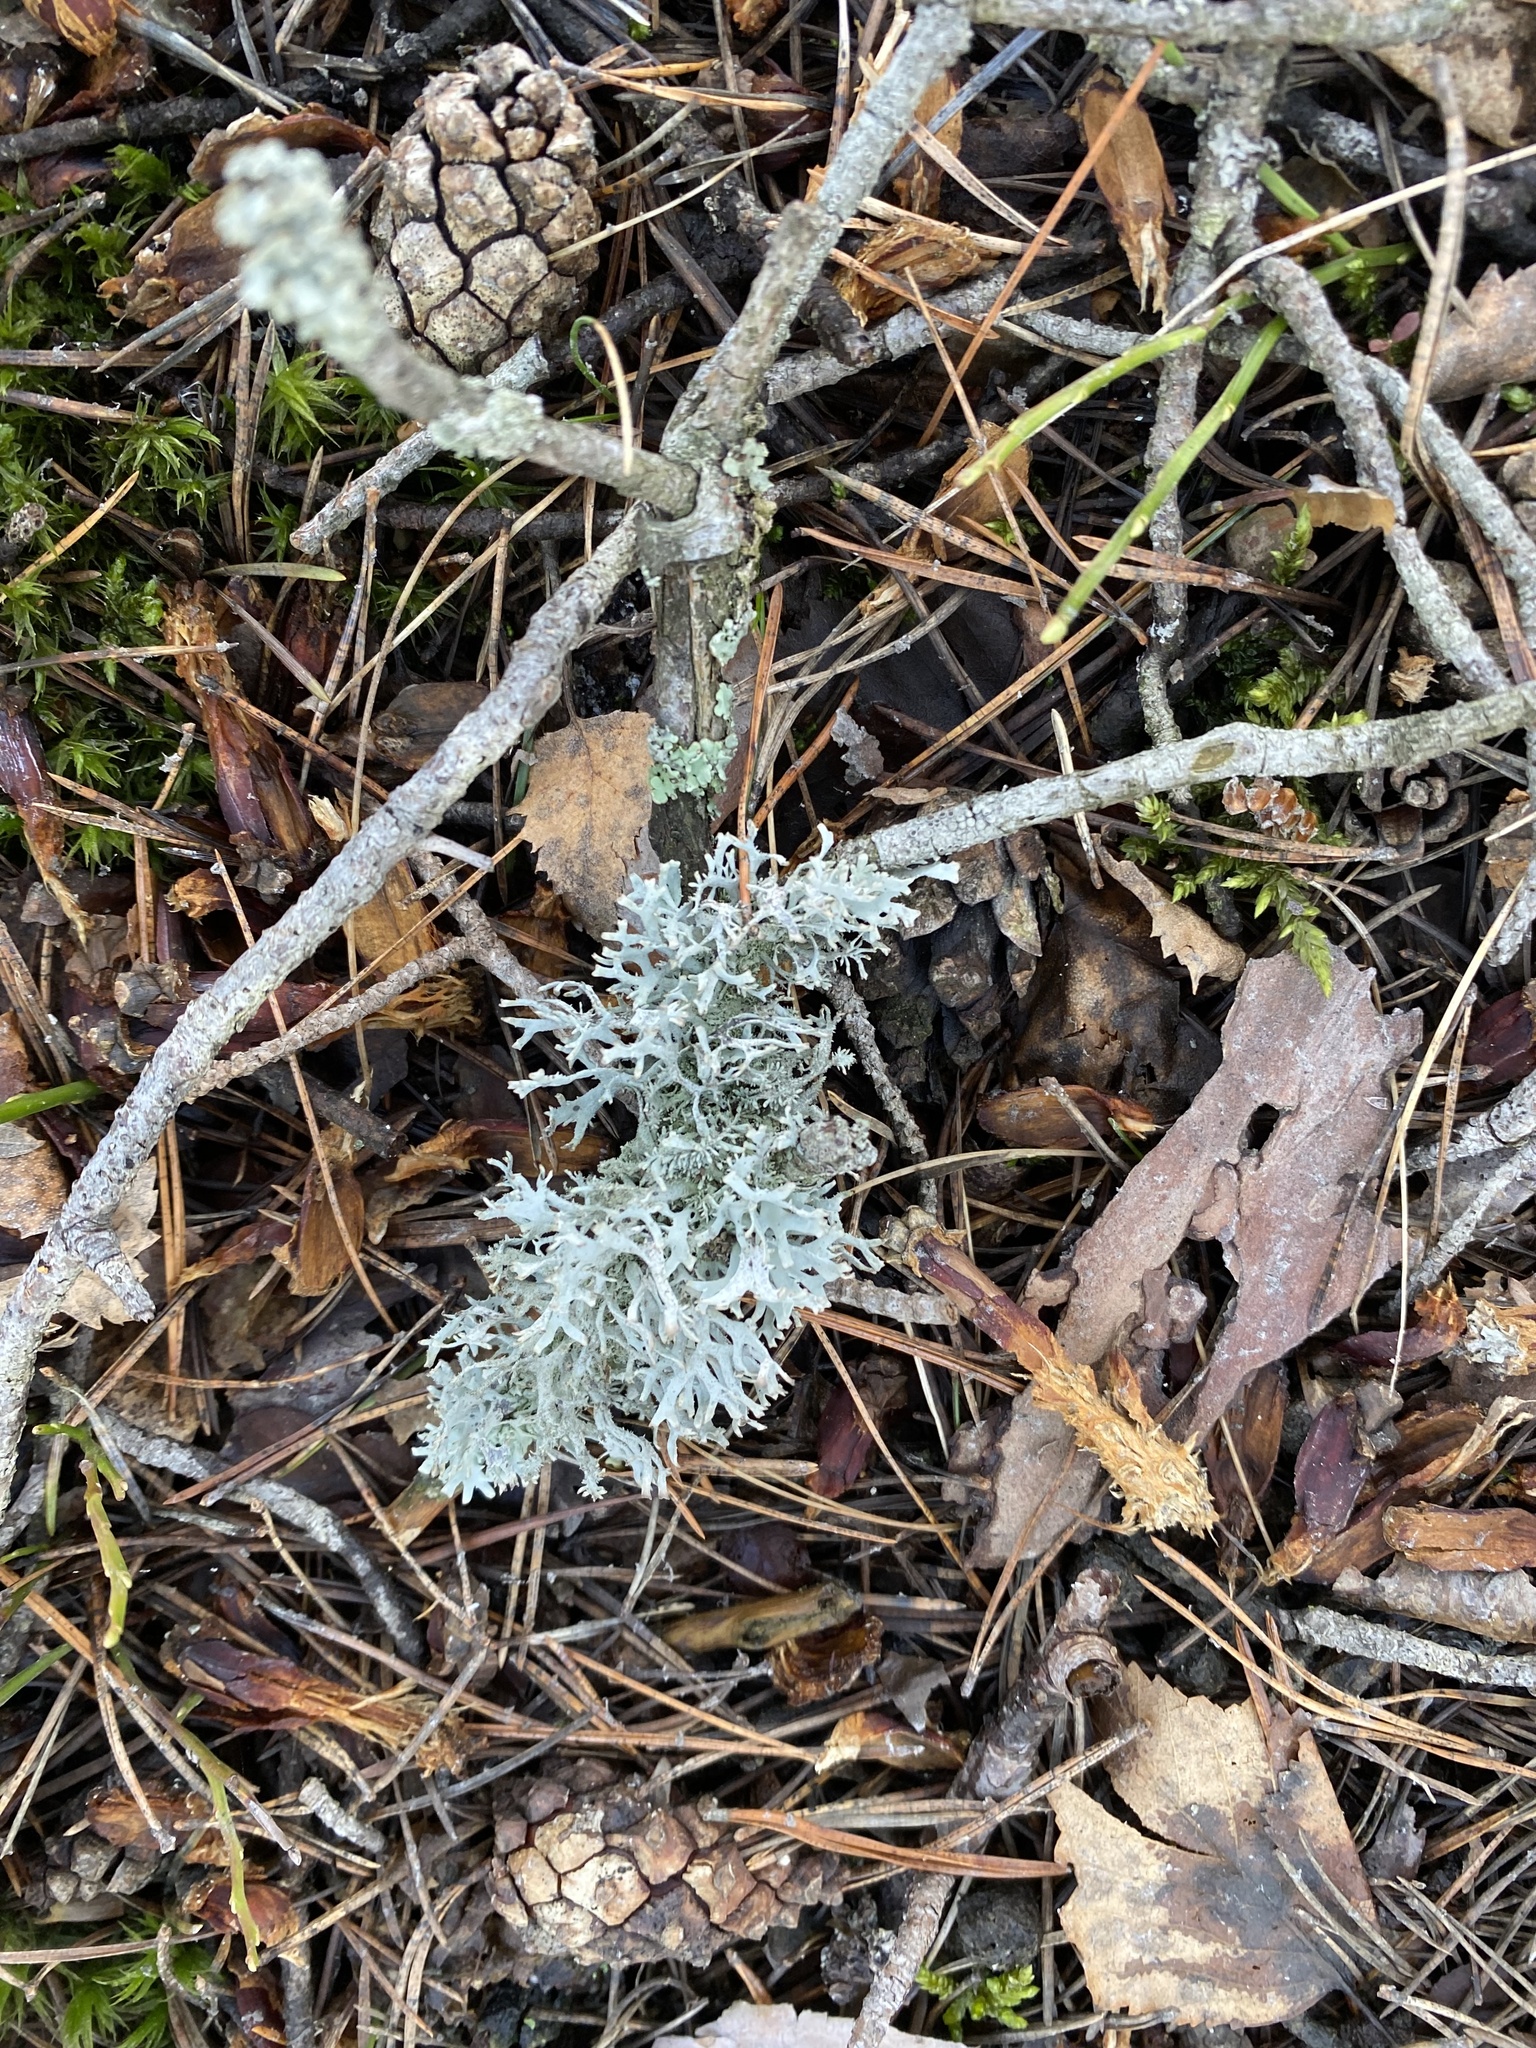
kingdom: Fungi
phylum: Ascomycota
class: Lecanoromycetes
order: Lecanorales
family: Parmeliaceae
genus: Pseudevernia
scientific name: Pseudevernia furfuracea
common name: Tree moss
